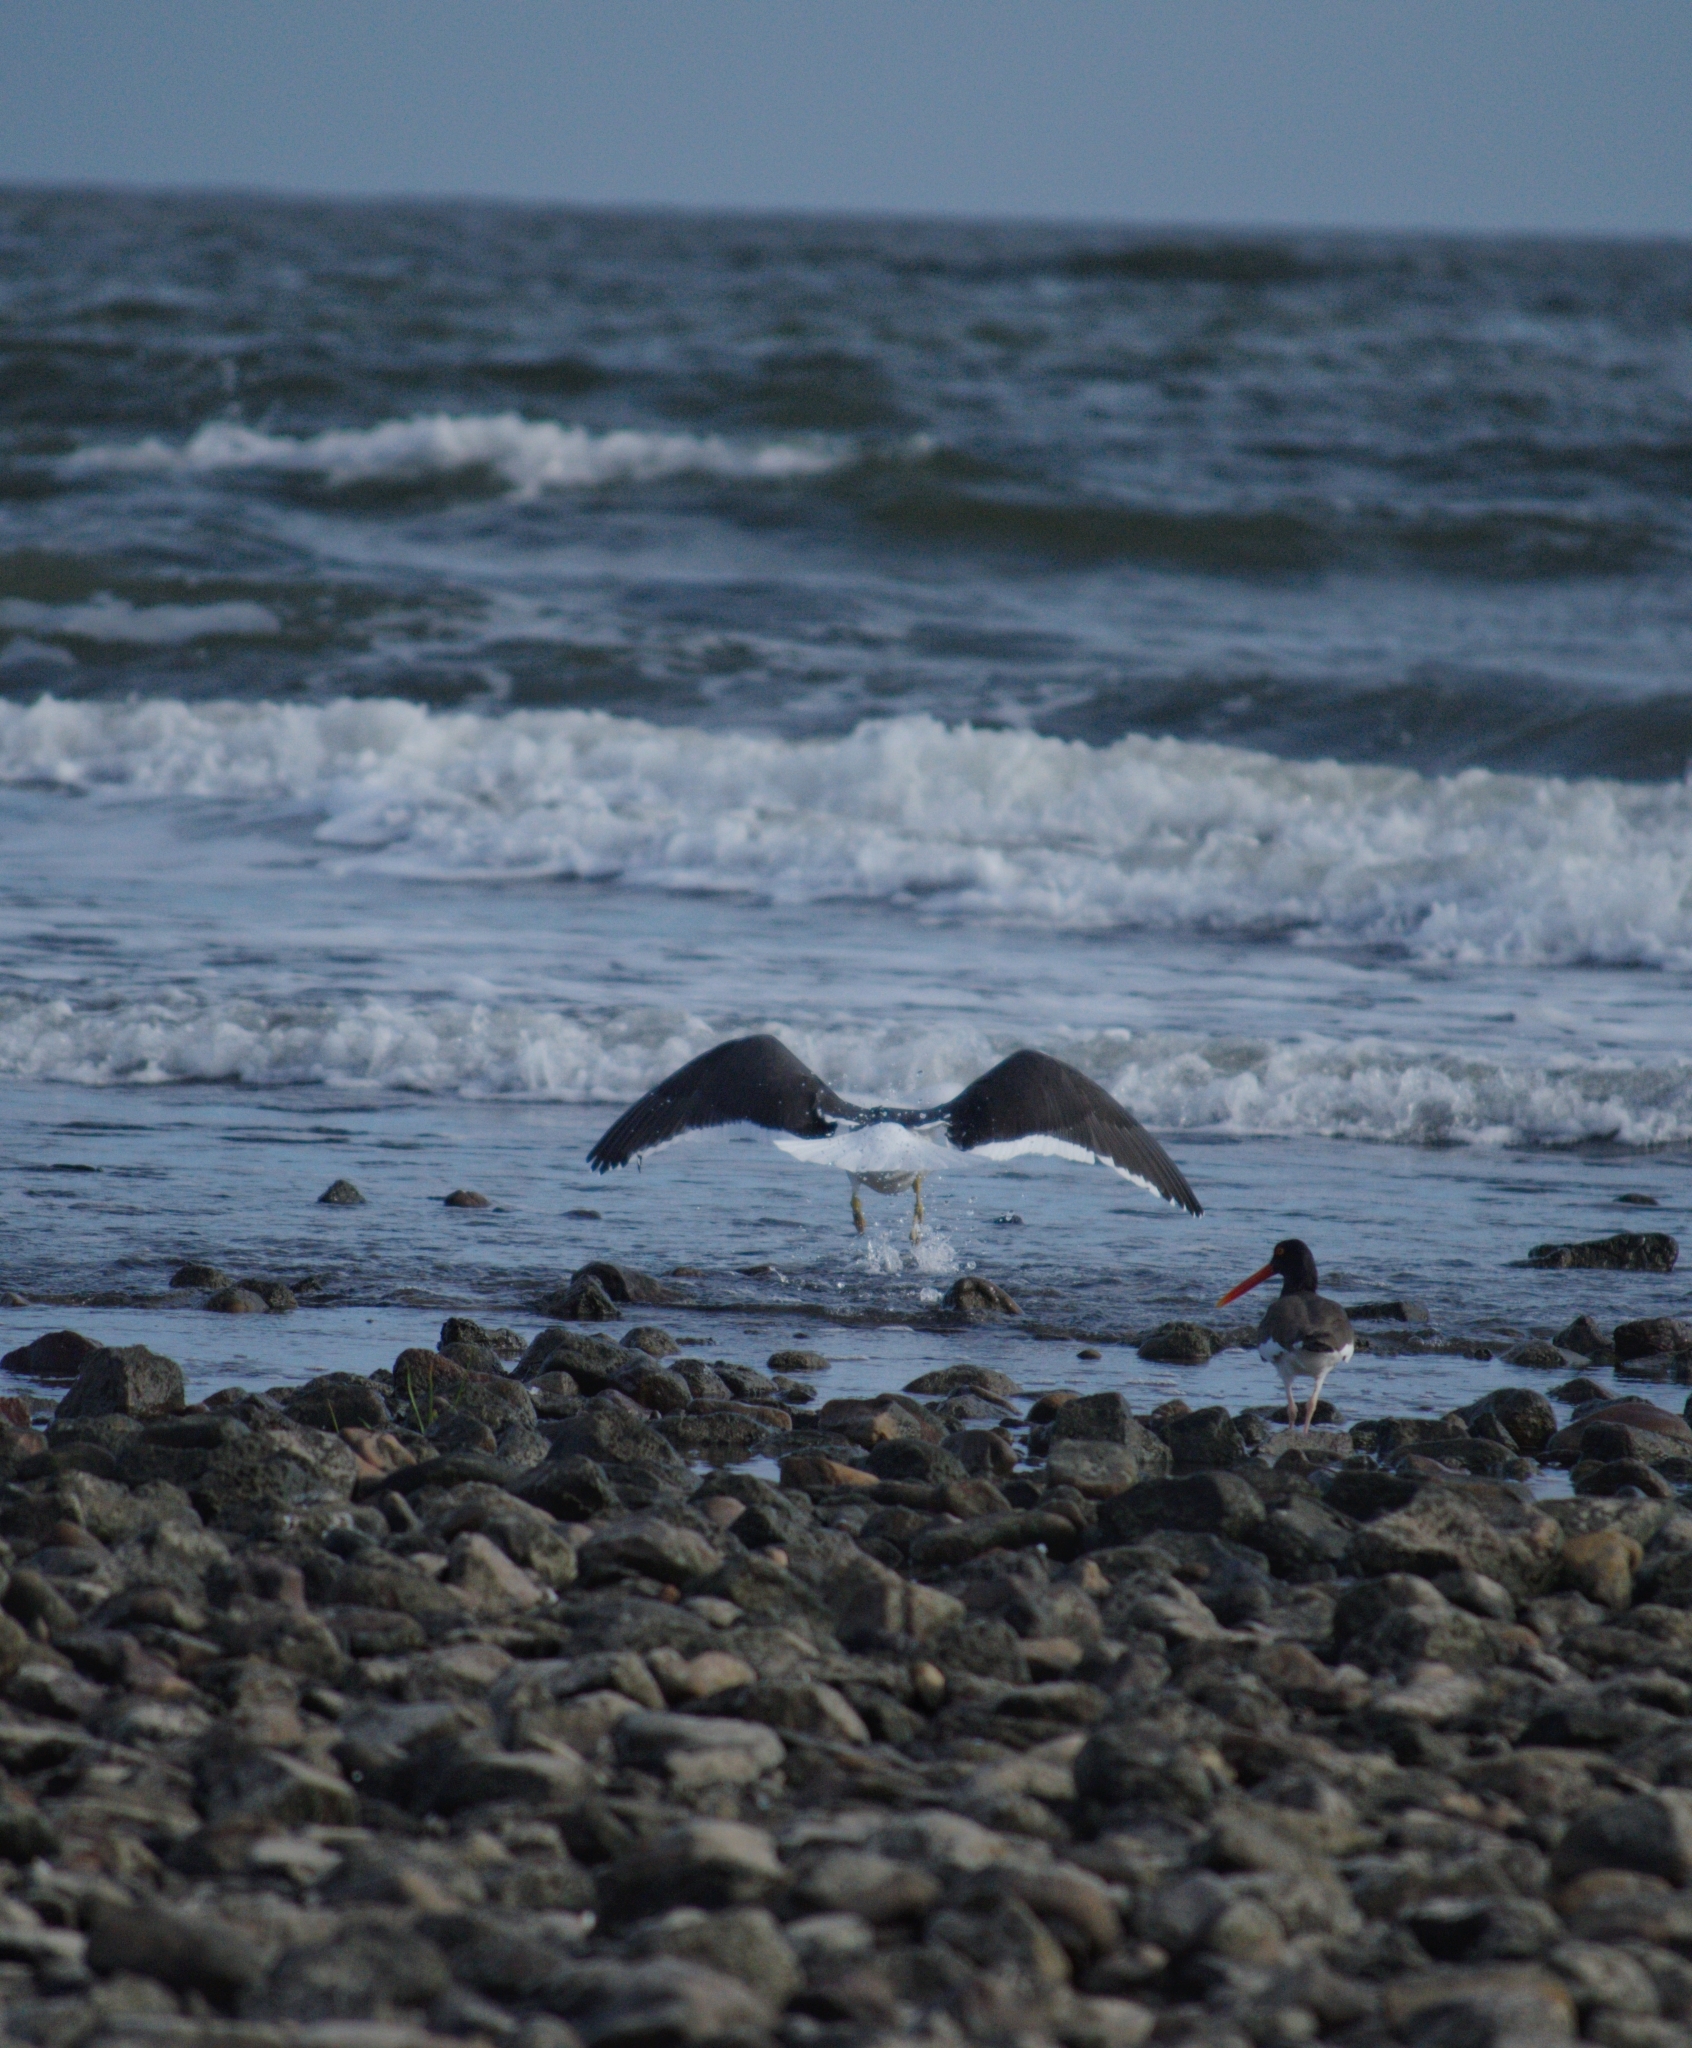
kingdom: Animalia
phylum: Chordata
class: Aves
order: Charadriiformes
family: Laridae
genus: Larus
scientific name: Larus dominicanus
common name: Kelp gull
